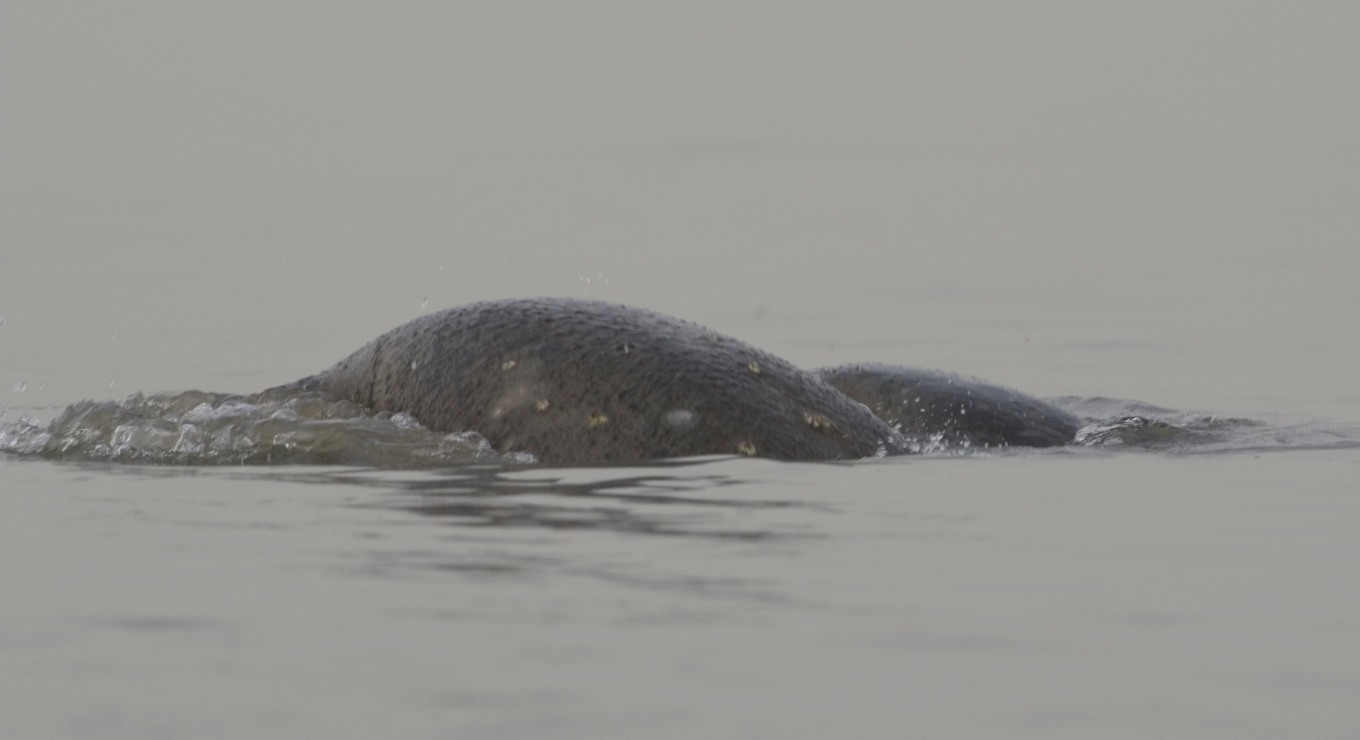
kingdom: Animalia
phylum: Chordata
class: Mammalia
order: Sirenia
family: Trichechidae
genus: Trichechus
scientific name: Trichechus senegalensis
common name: West african manatee
